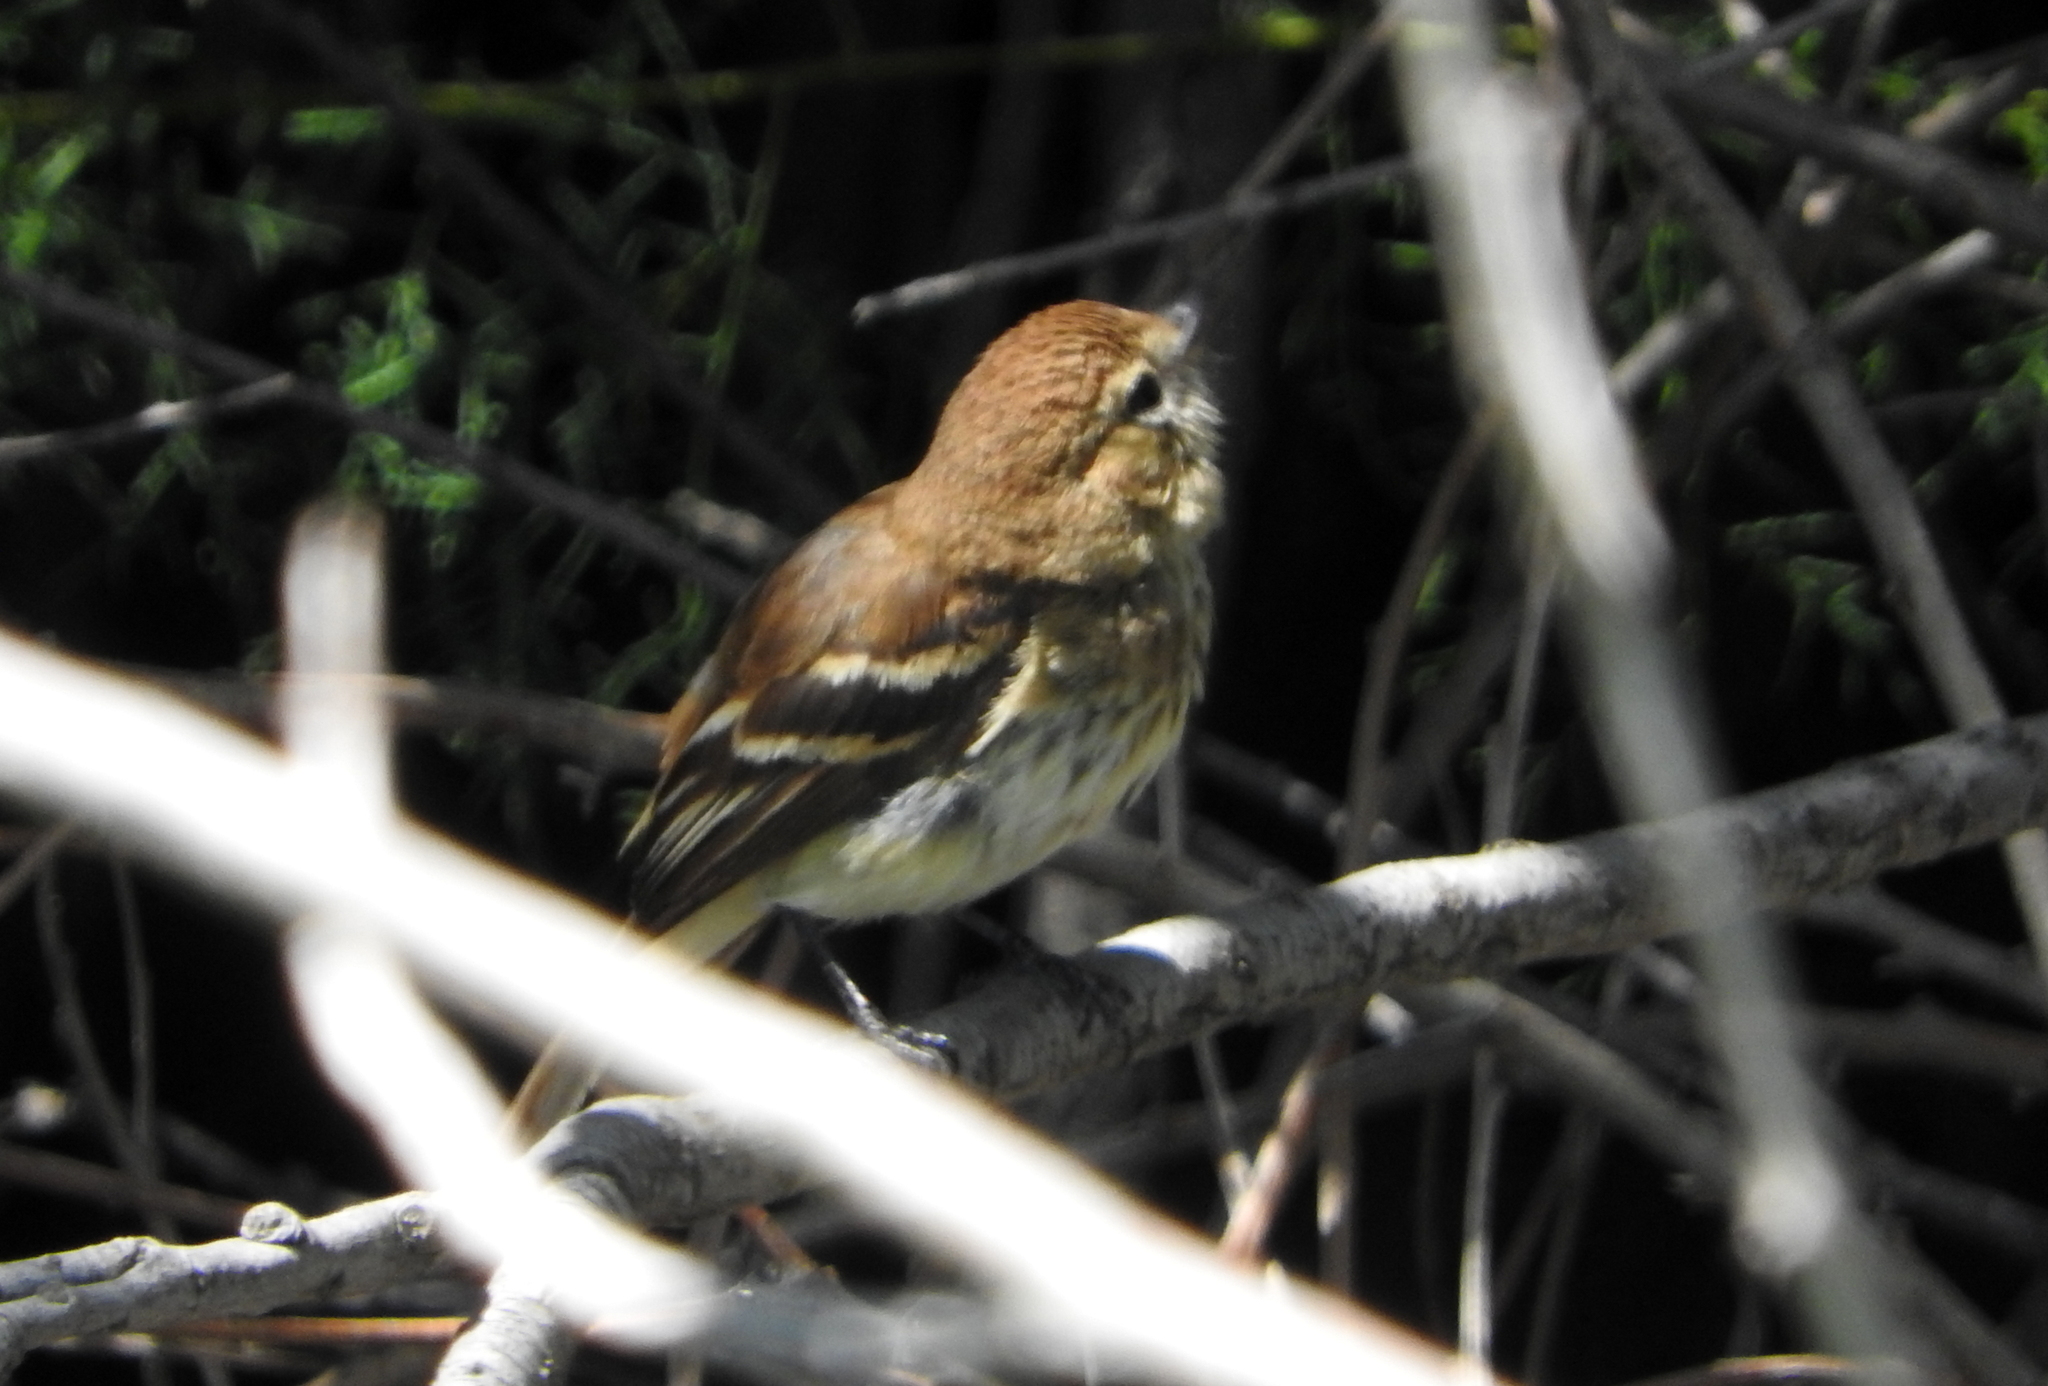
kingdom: Animalia
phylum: Chordata
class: Aves
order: Passeriformes
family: Tyrannidae
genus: Myiophobus
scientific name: Myiophobus fasciatus
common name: Bran-colored flycatcher
